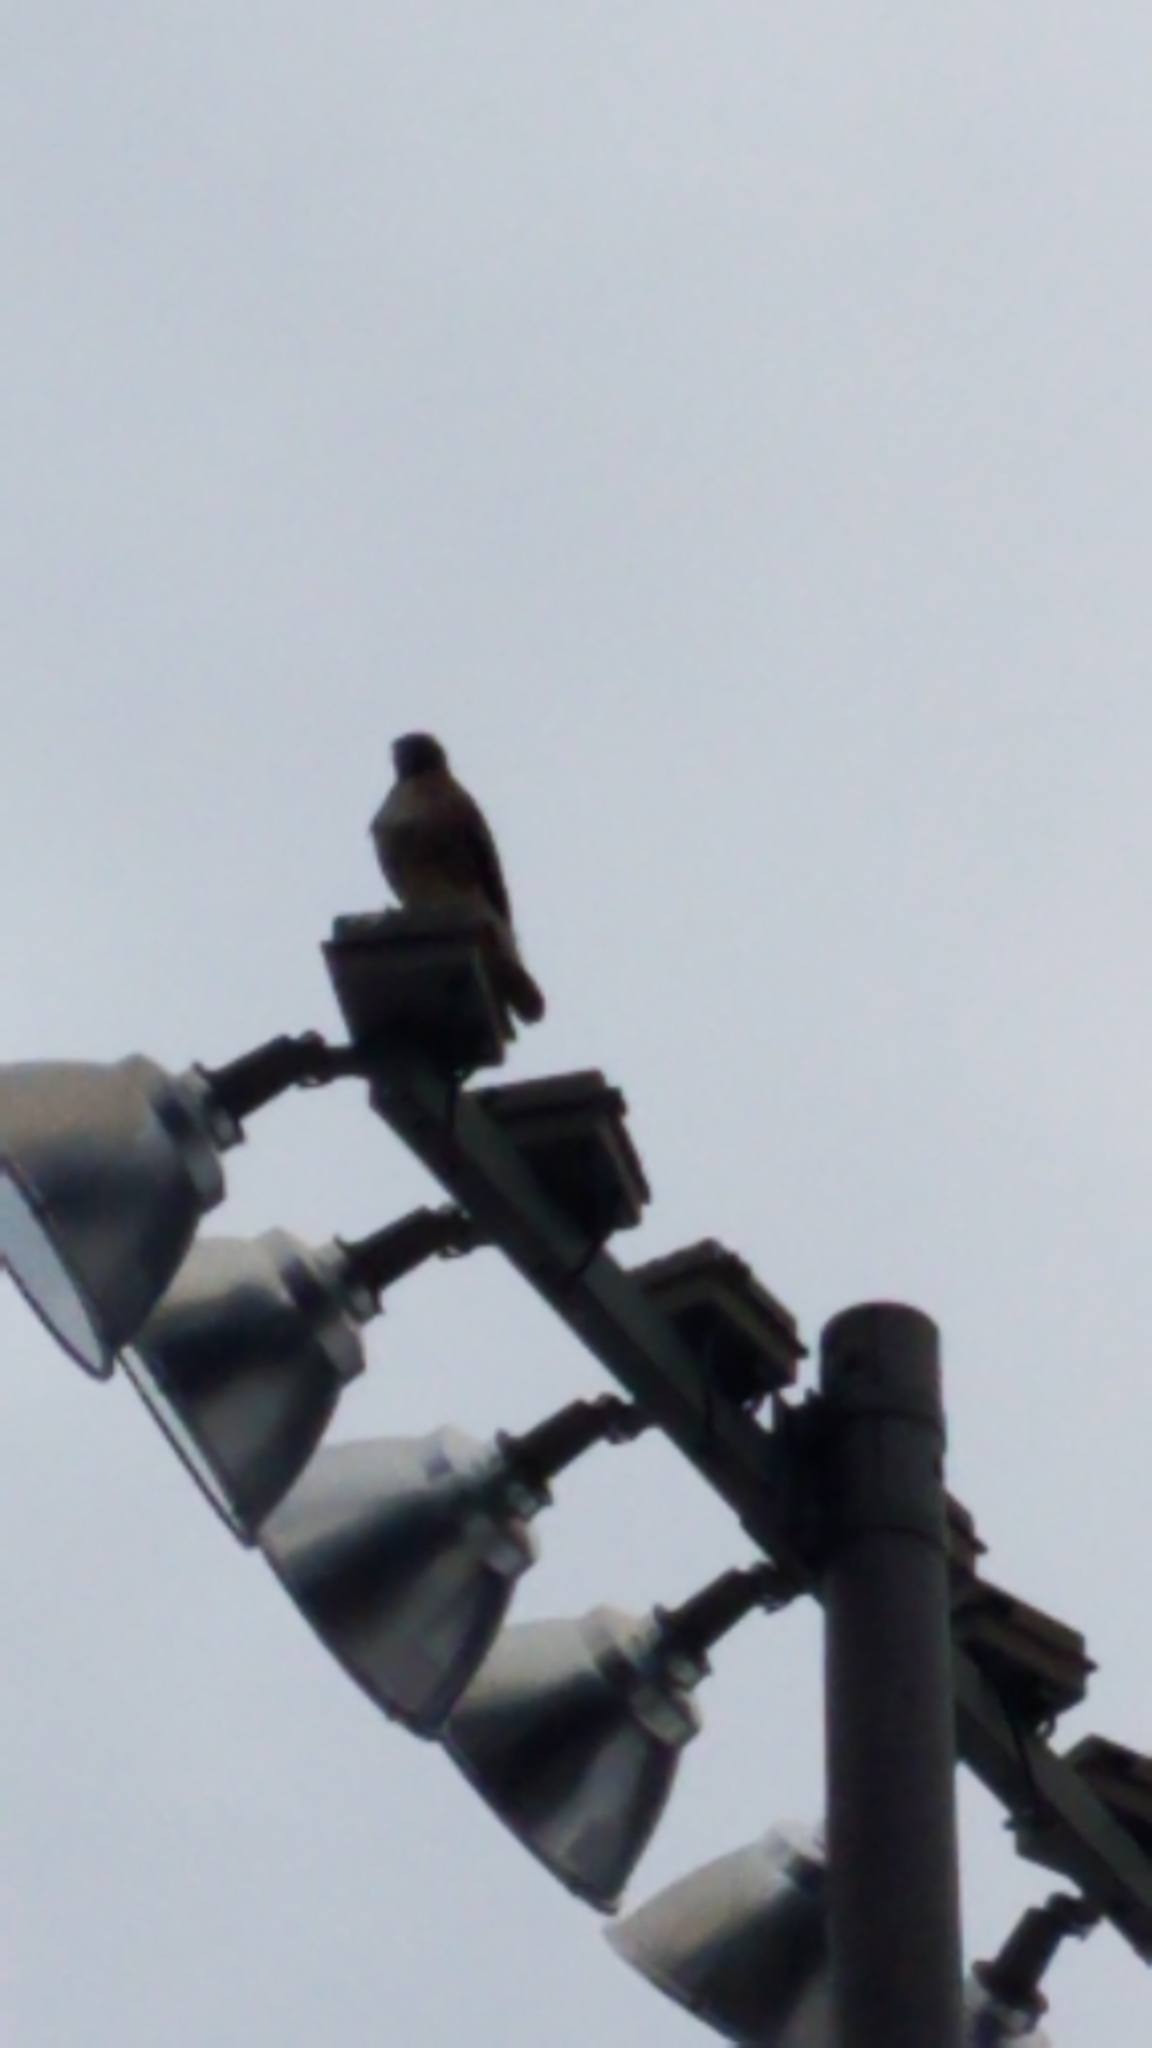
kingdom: Animalia
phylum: Chordata
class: Aves
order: Accipitriformes
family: Accipitridae
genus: Buteo
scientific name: Buteo jamaicensis
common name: Red-tailed hawk
